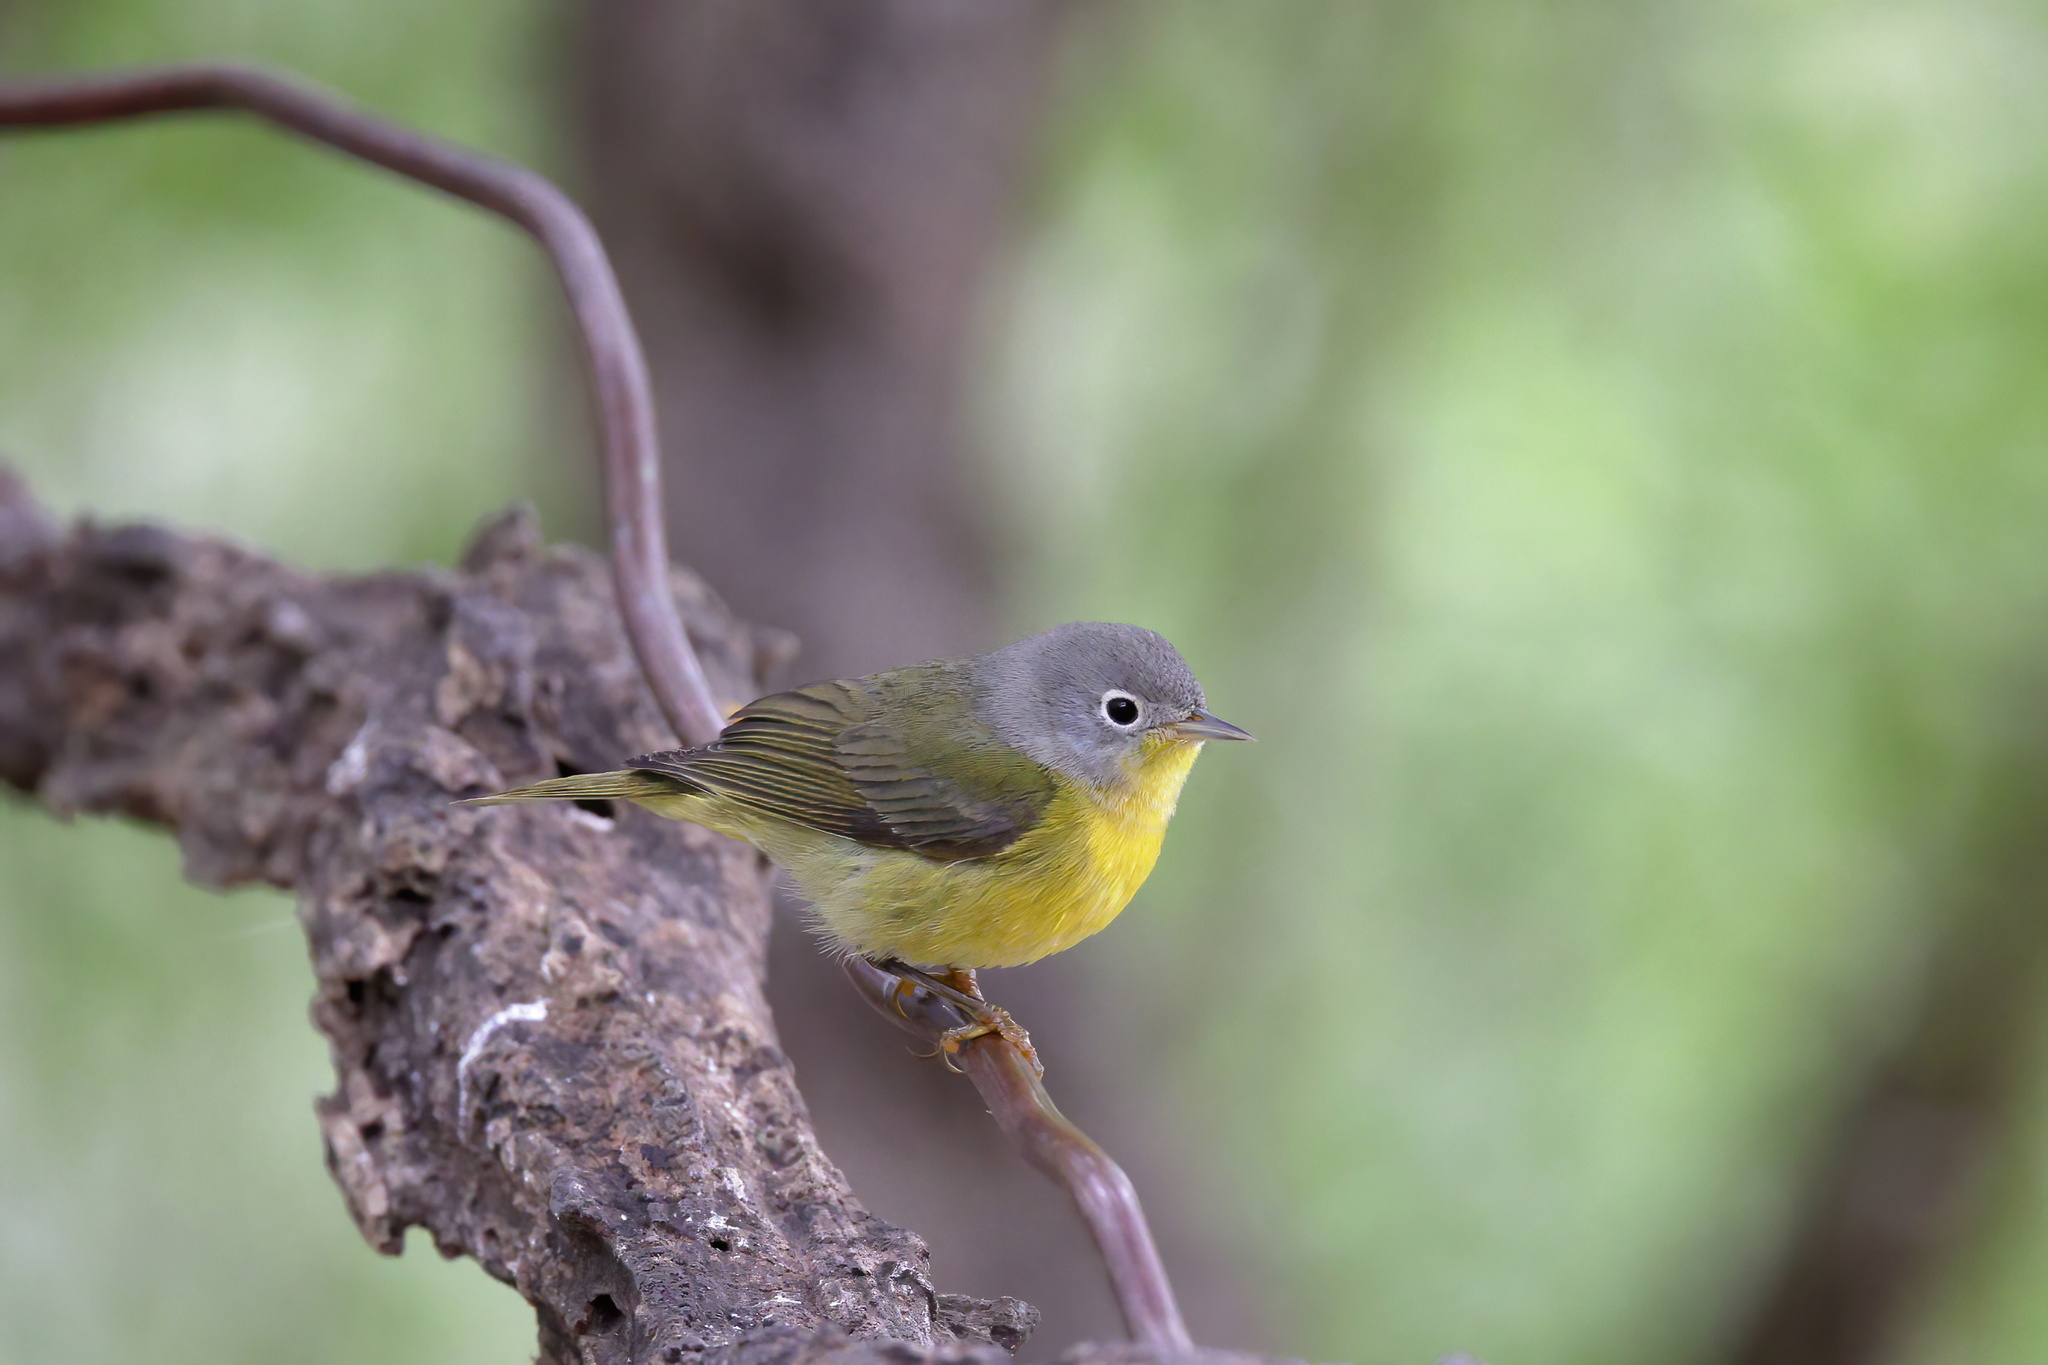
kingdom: Animalia
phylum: Chordata
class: Aves
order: Passeriformes
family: Parulidae
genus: Leiothlypis
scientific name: Leiothlypis ruficapilla
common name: Nashville warbler
